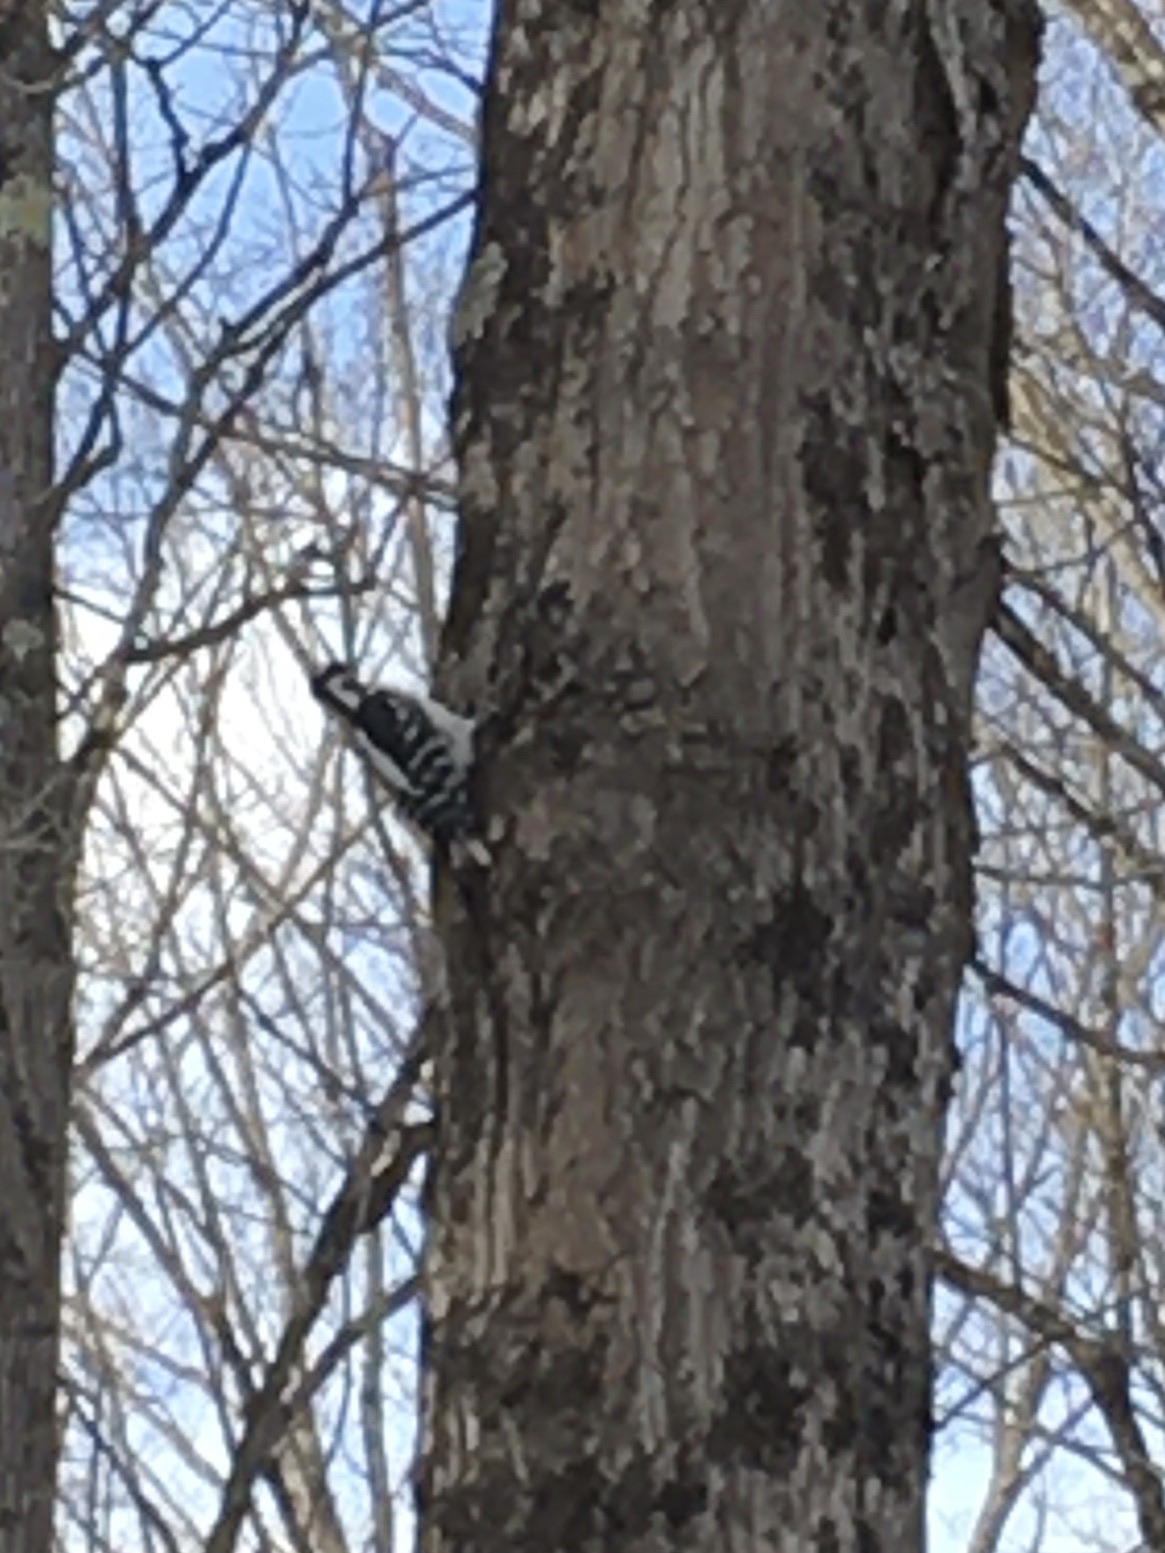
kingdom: Animalia
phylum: Chordata
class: Aves
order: Piciformes
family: Picidae
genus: Leuconotopicus
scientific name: Leuconotopicus villosus
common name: Hairy woodpecker
